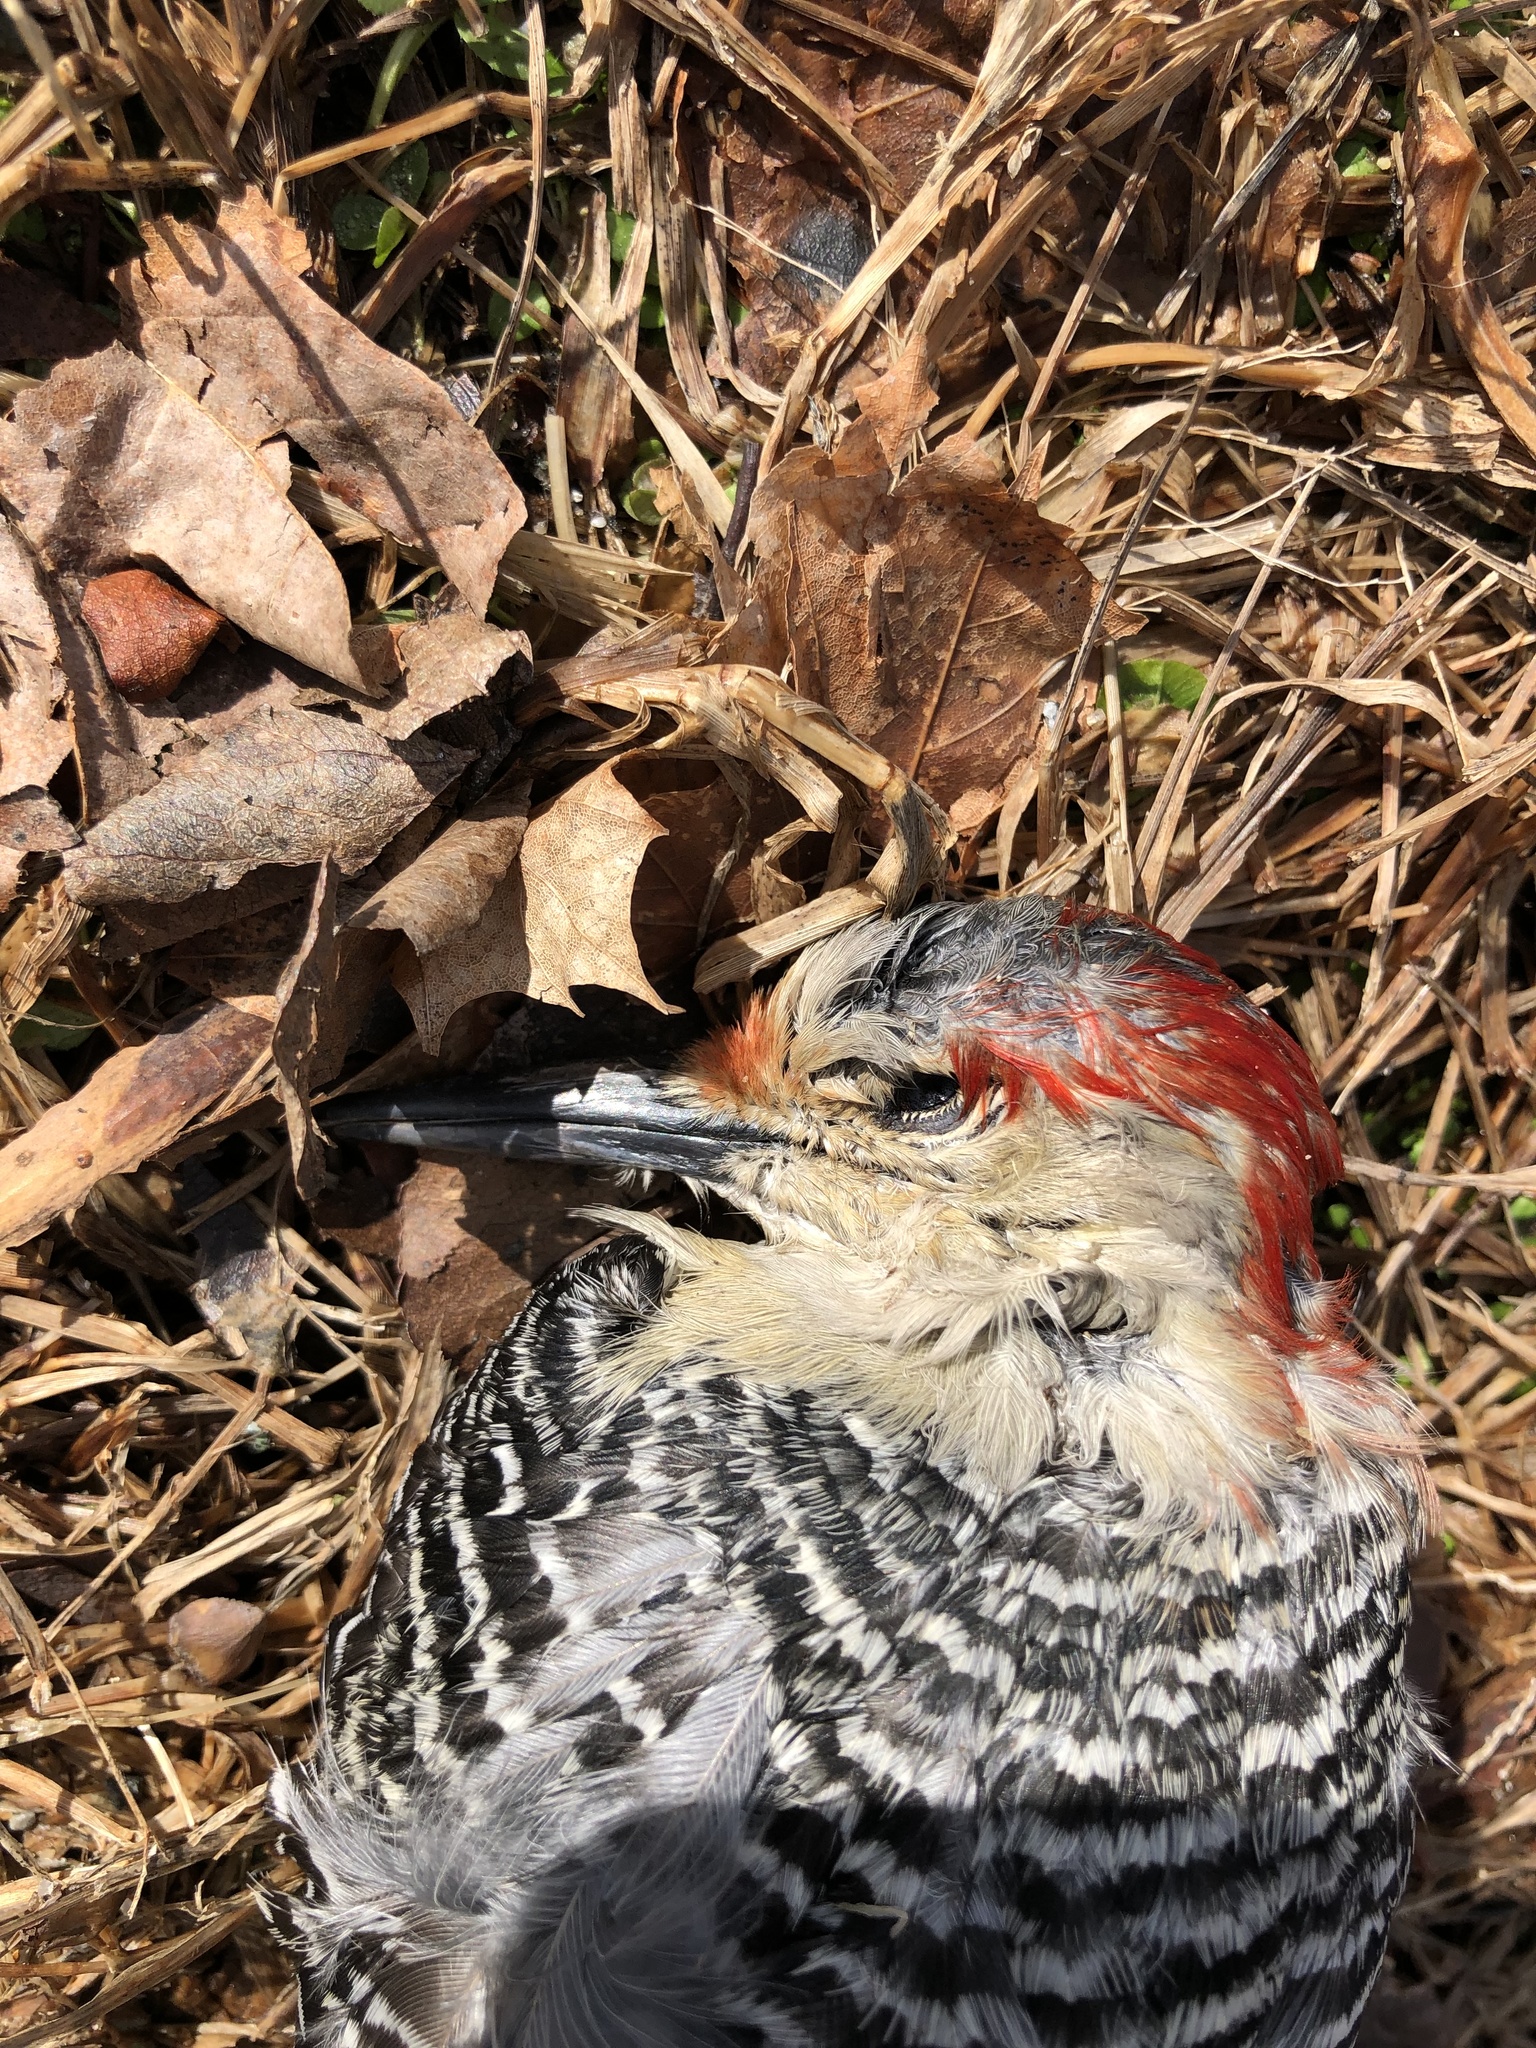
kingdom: Animalia
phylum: Chordata
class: Aves
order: Piciformes
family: Picidae
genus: Melanerpes
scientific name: Melanerpes carolinus
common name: Red-bellied woodpecker
